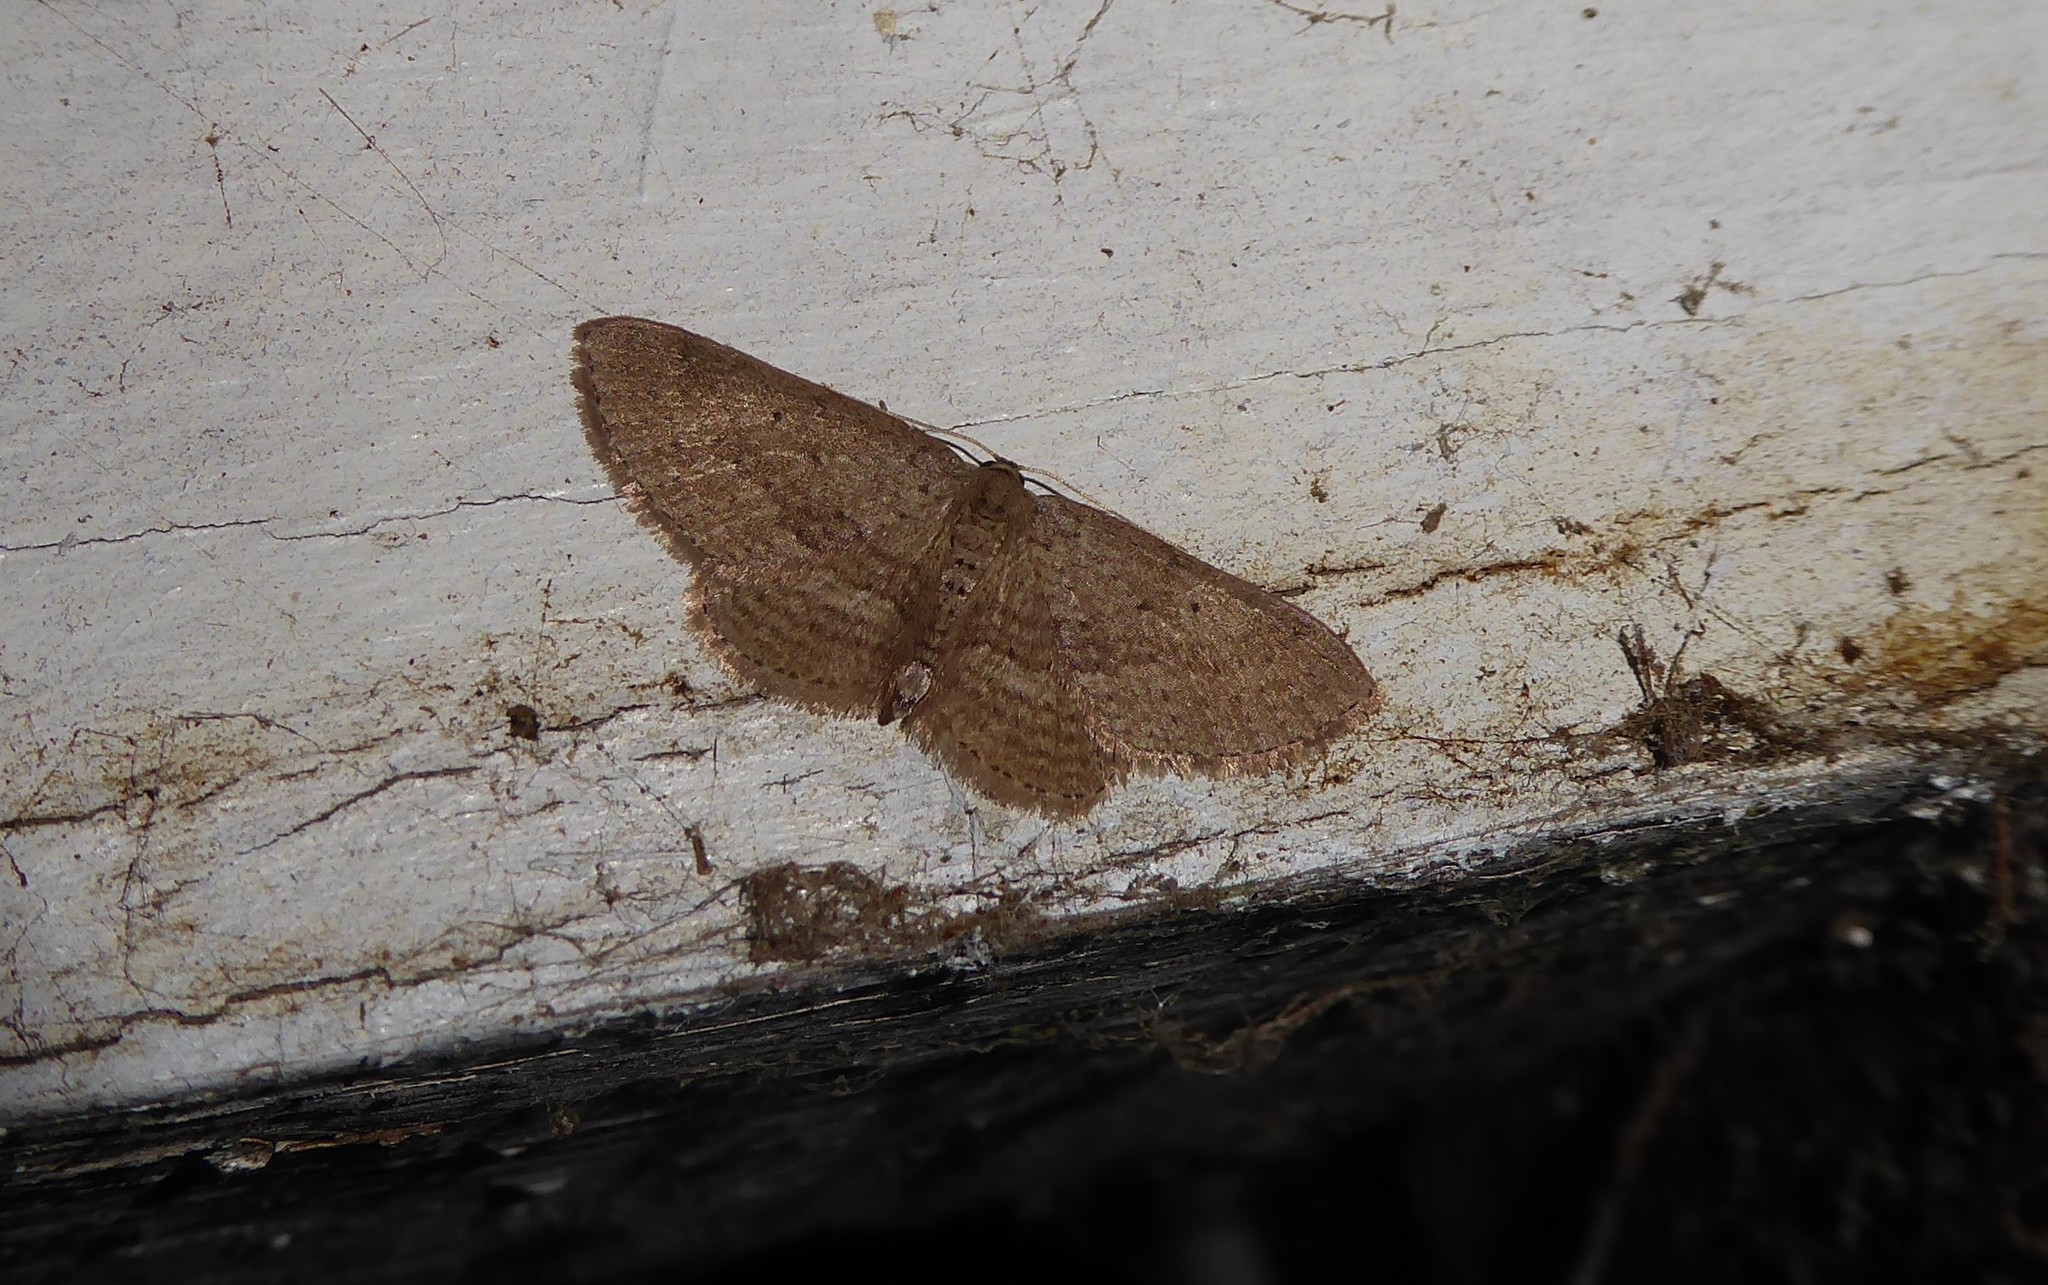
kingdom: Animalia
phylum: Arthropoda
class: Insecta
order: Lepidoptera
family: Geometridae
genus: Poecilasthena
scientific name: Poecilasthena schistaria
